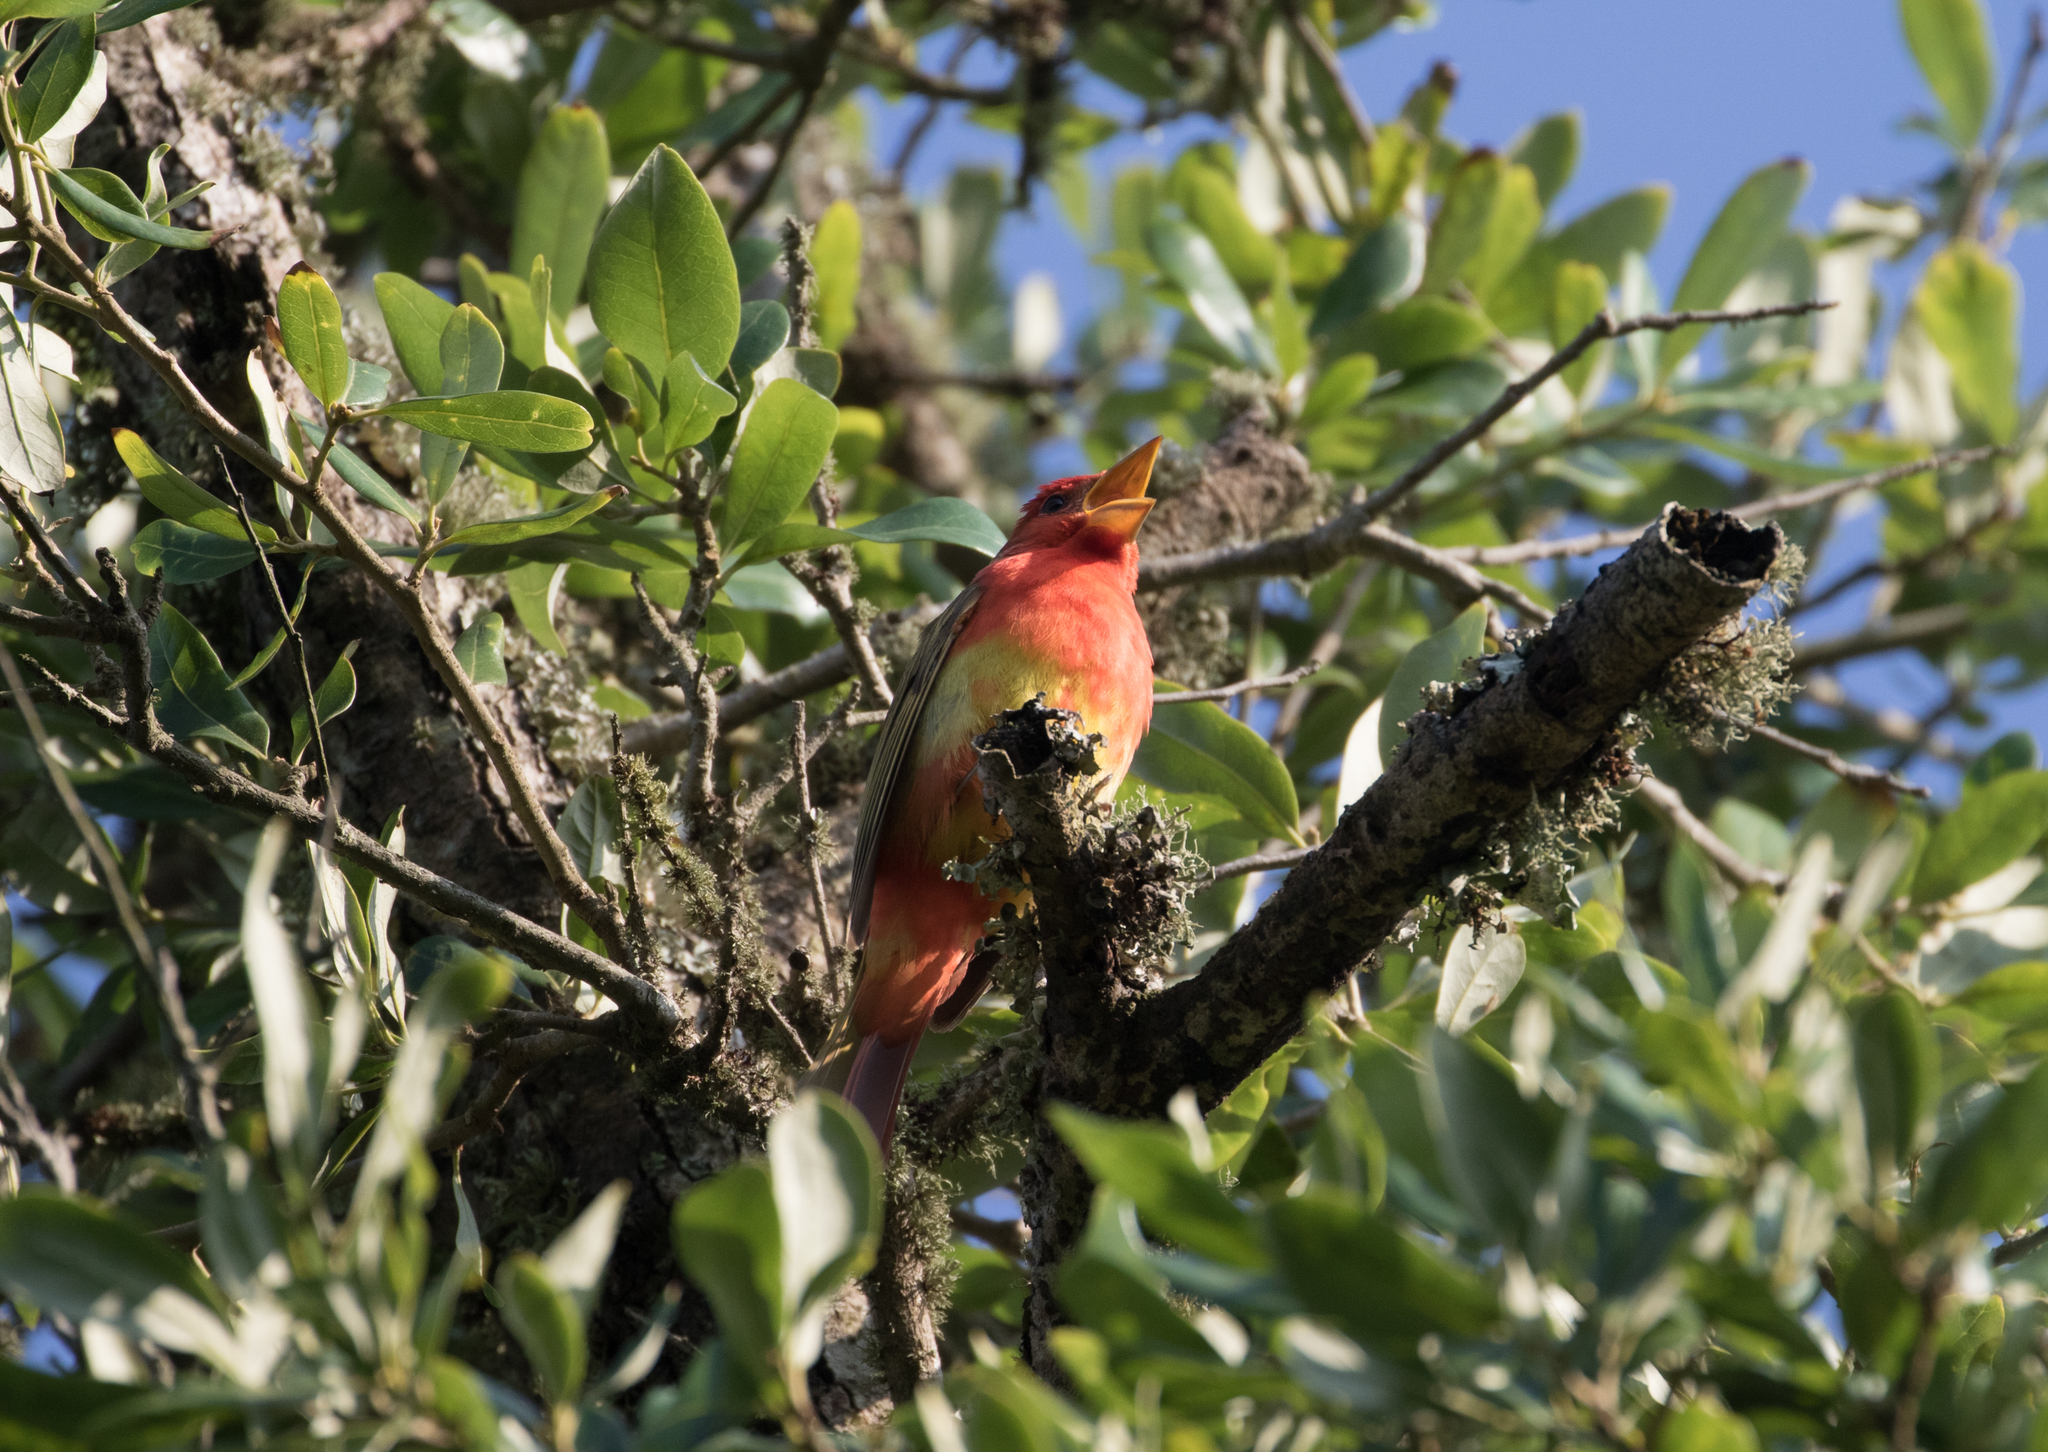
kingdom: Animalia
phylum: Chordata
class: Aves
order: Passeriformes
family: Cardinalidae
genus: Piranga
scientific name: Piranga rubra
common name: Summer tanager
